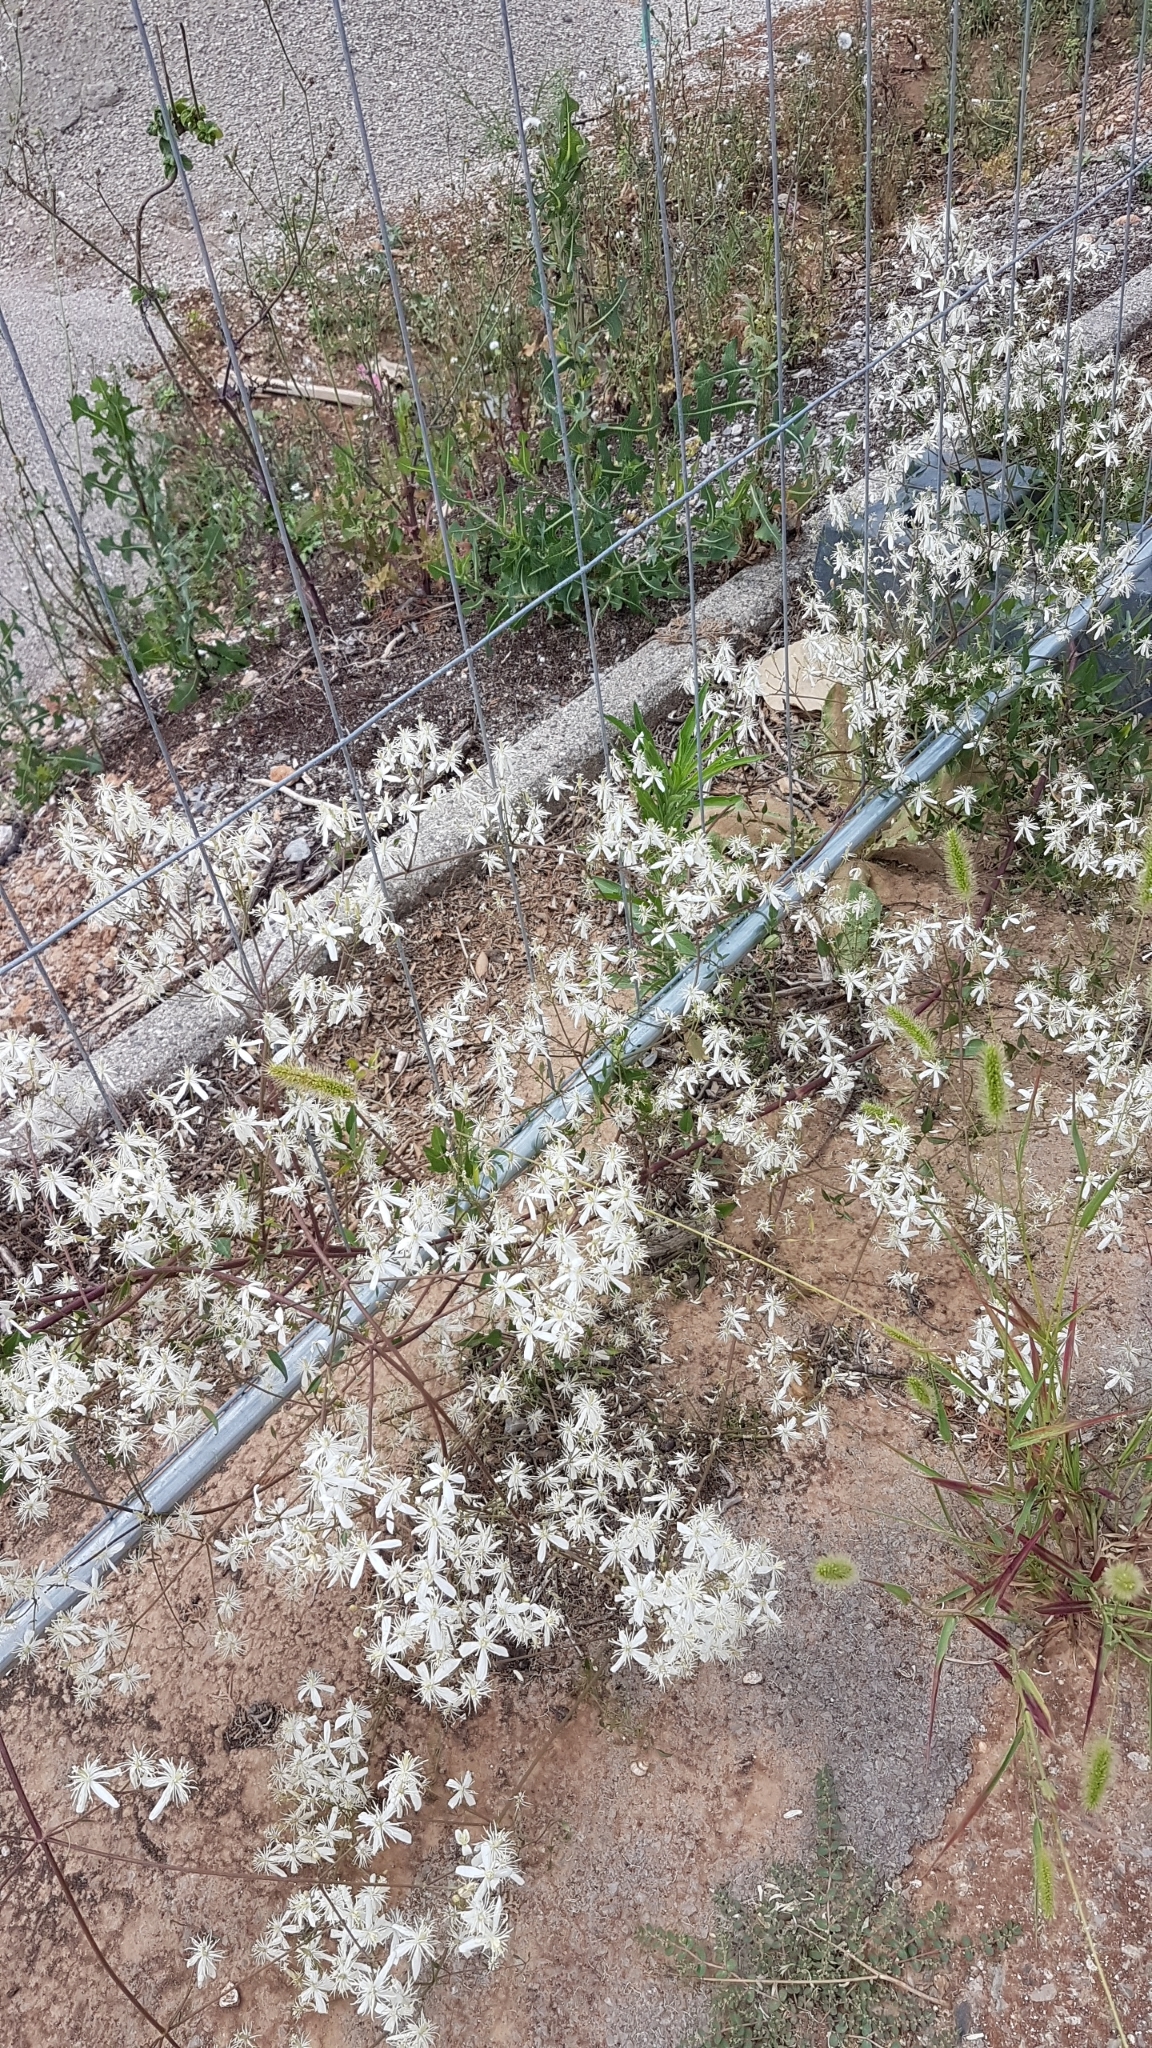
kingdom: Plantae
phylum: Tracheophyta
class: Magnoliopsida
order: Ranunculales
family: Ranunculaceae
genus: Clematis
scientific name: Clematis flammula
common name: Virgin's-bower
